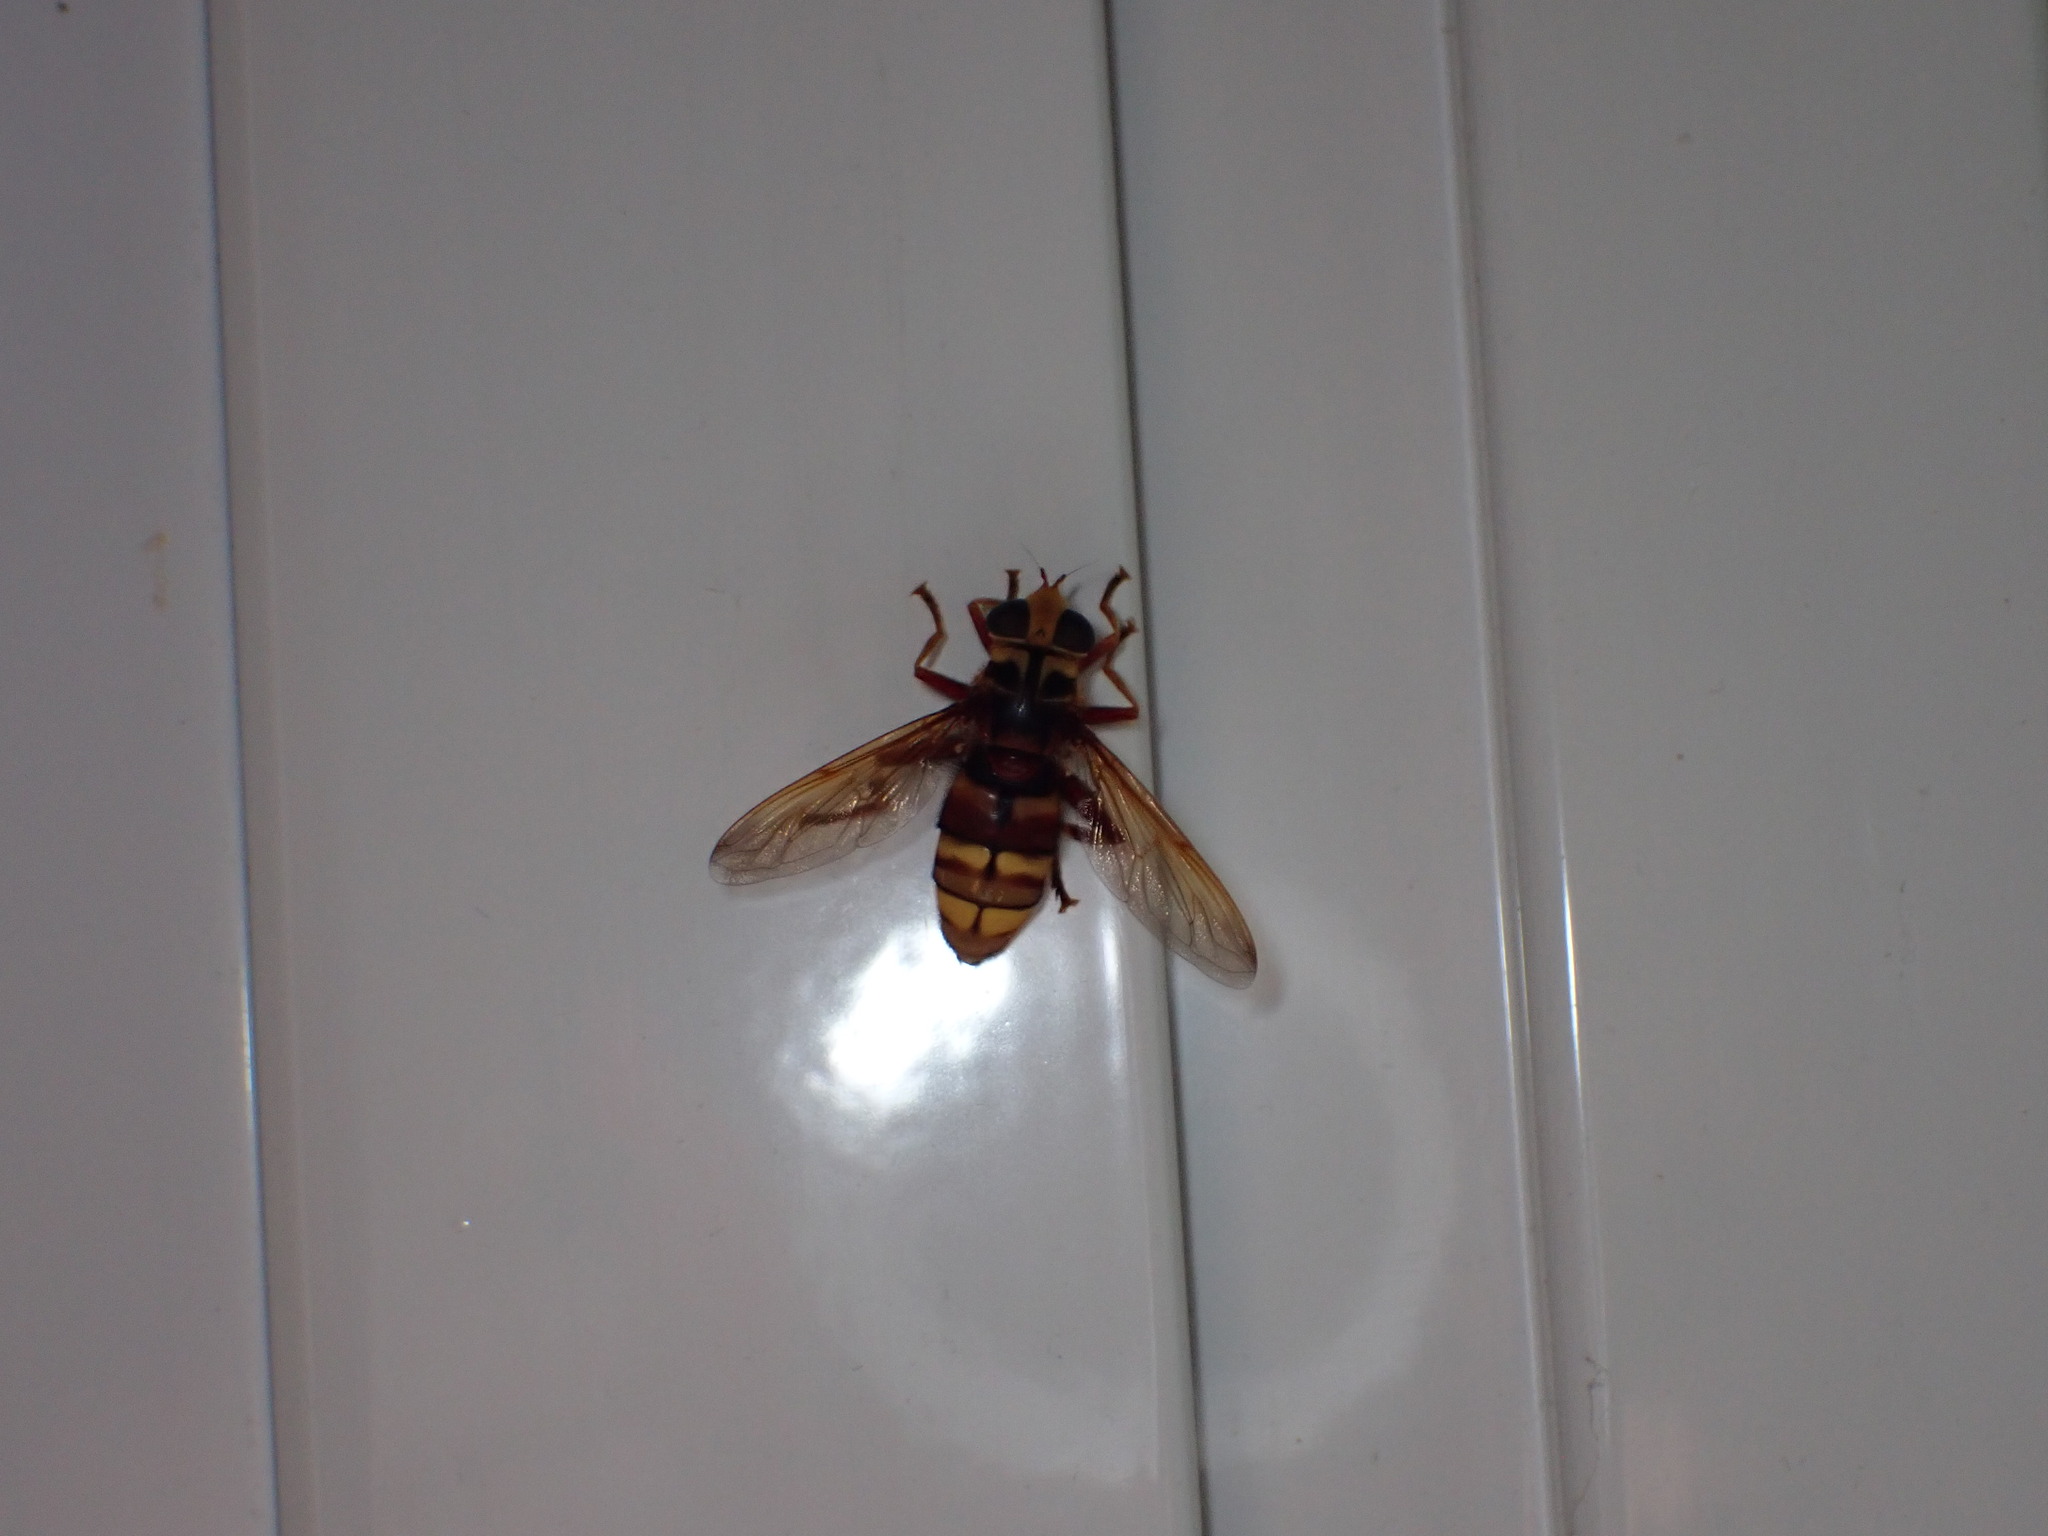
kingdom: Animalia
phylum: Arthropoda
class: Insecta
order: Diptera
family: Syrphidae
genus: Milesia
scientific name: Milesia crabroniformis
